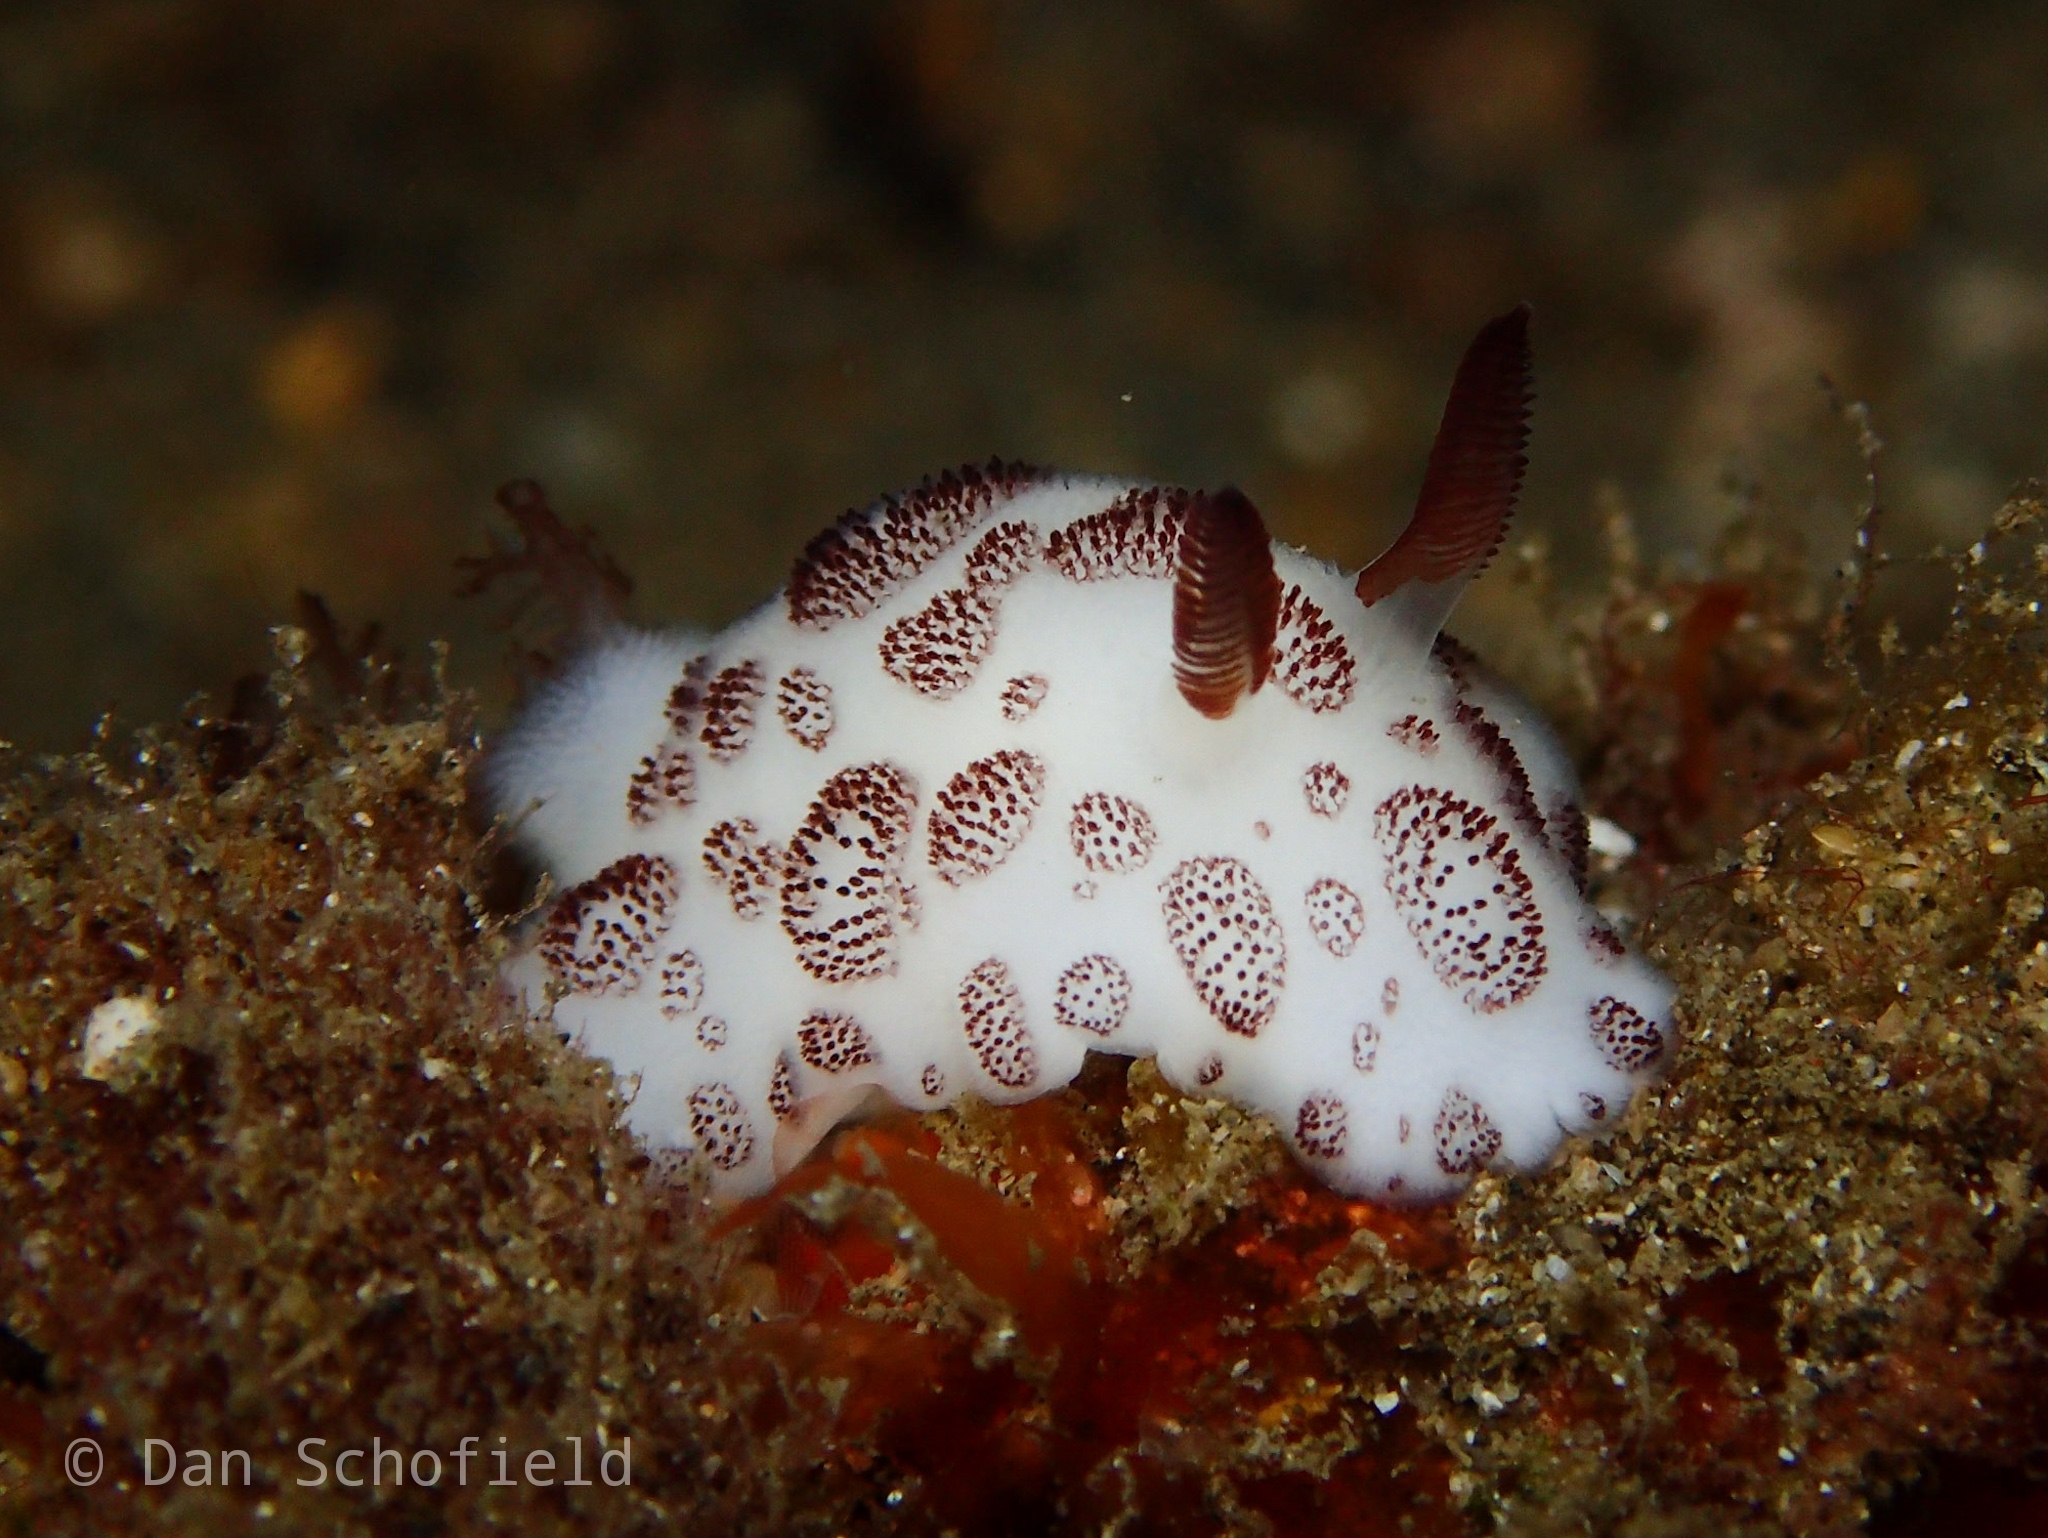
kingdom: Animalia
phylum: Mollusca
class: Gastropoda
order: Nudibranchia
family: Discodorididae
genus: Jorunna
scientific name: Jorunna funebris
